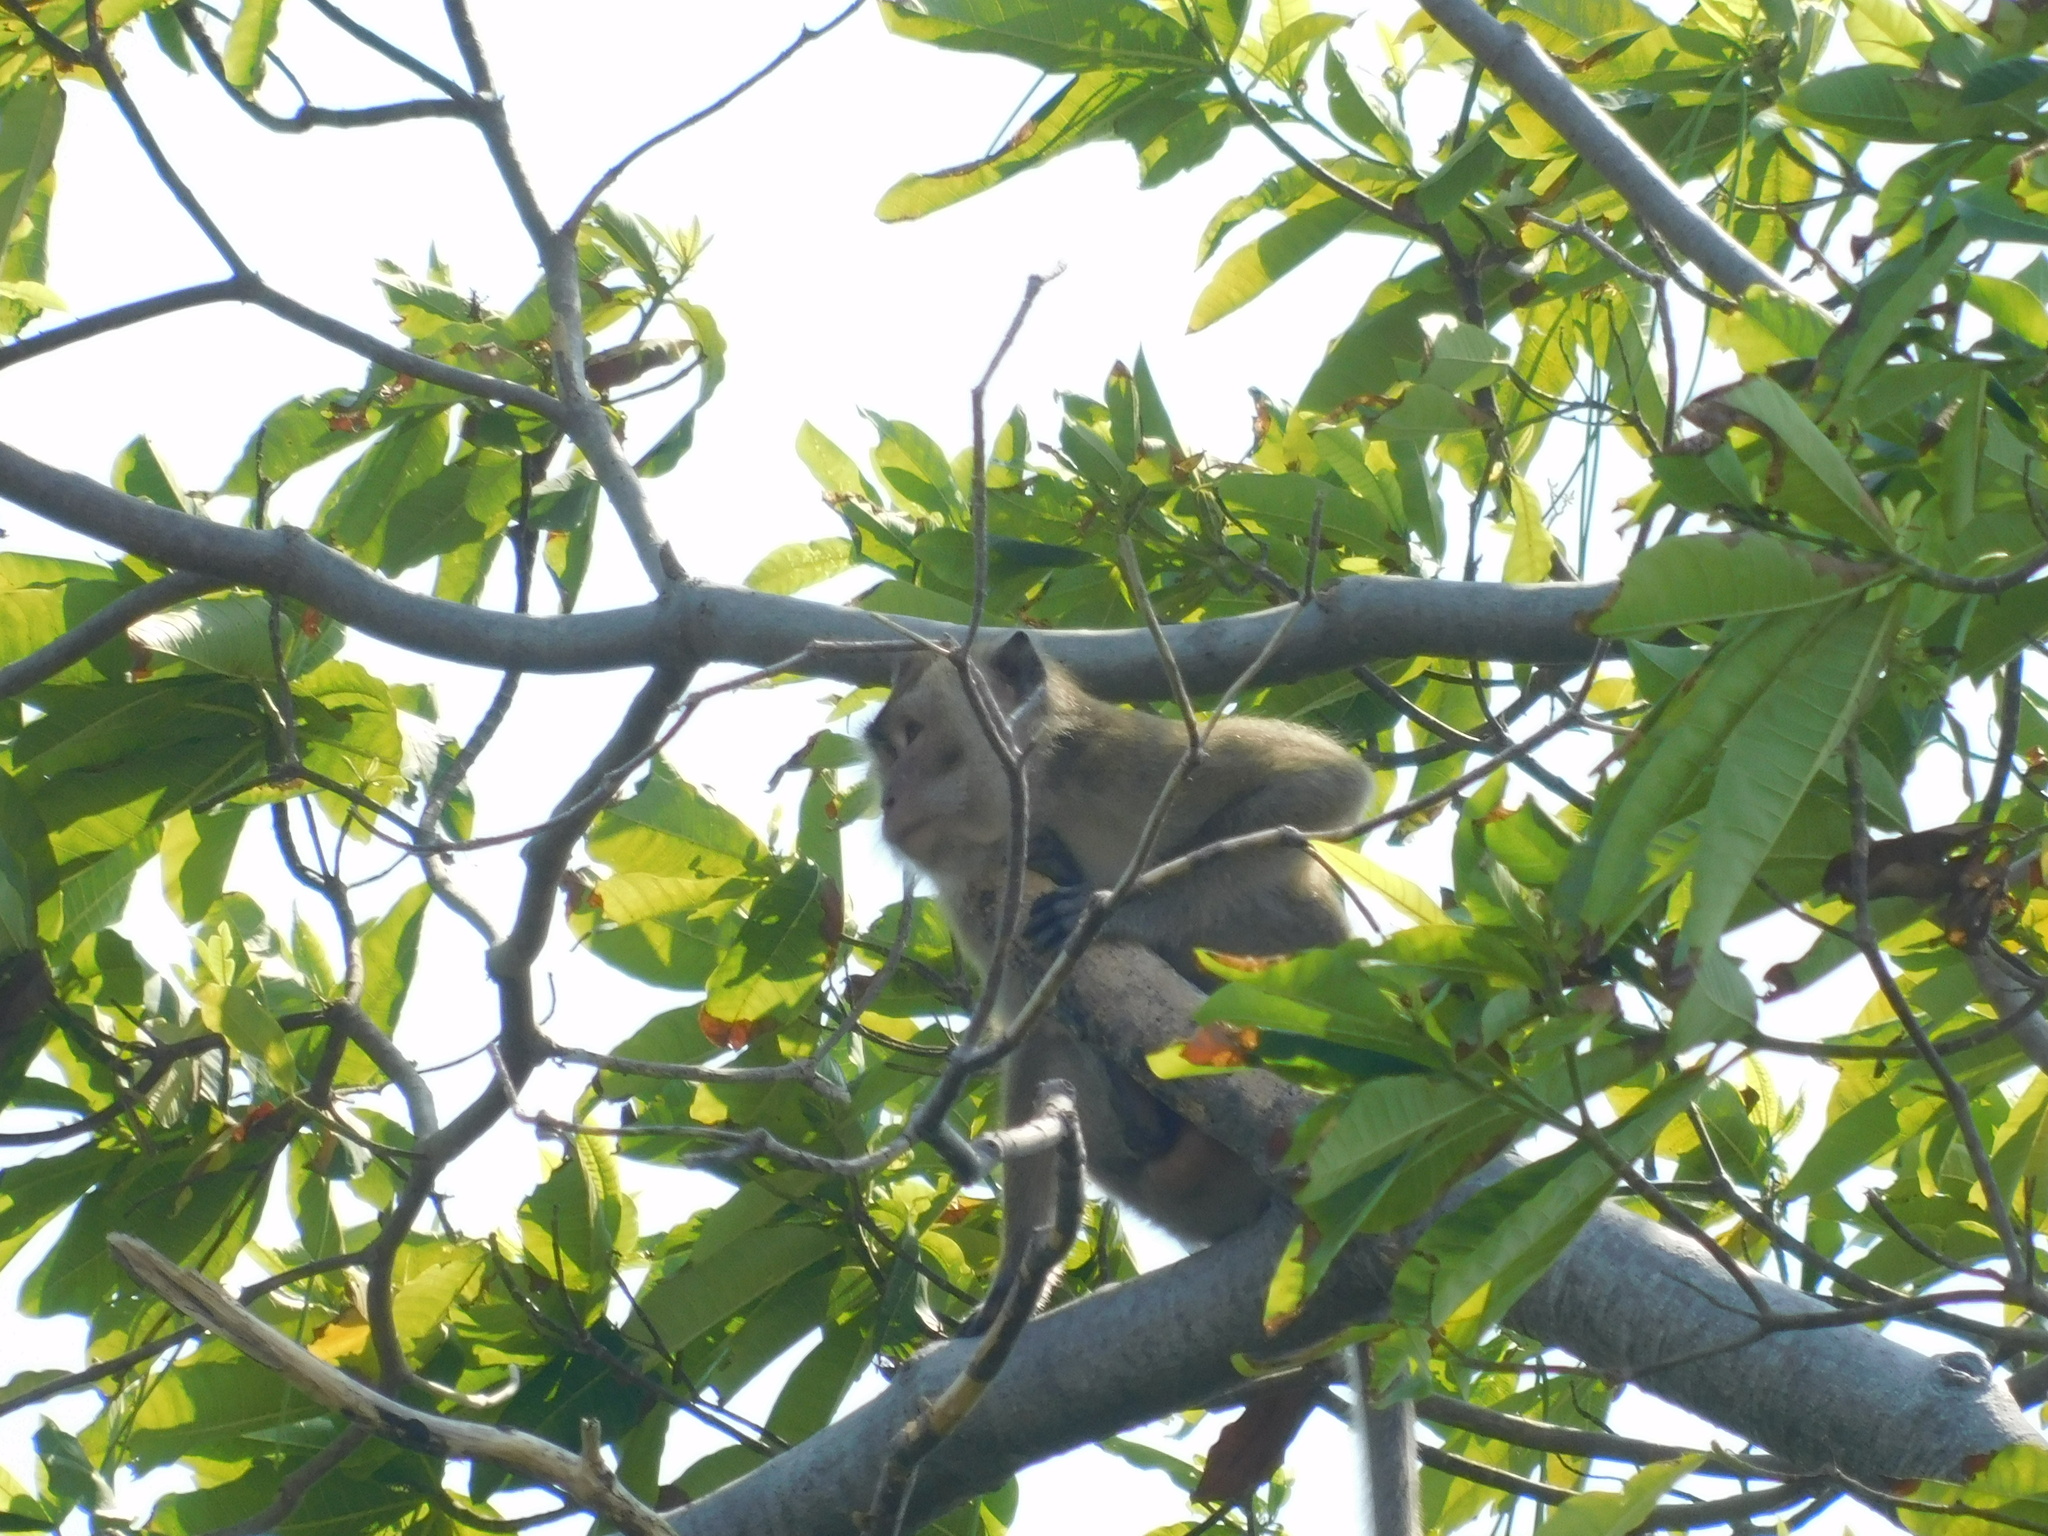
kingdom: Animalia
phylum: Chordata
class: Mammalia
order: Primates
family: Cercopithecidae
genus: Macaca
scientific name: Macaca fascicularis
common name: Crab-eating macaque
